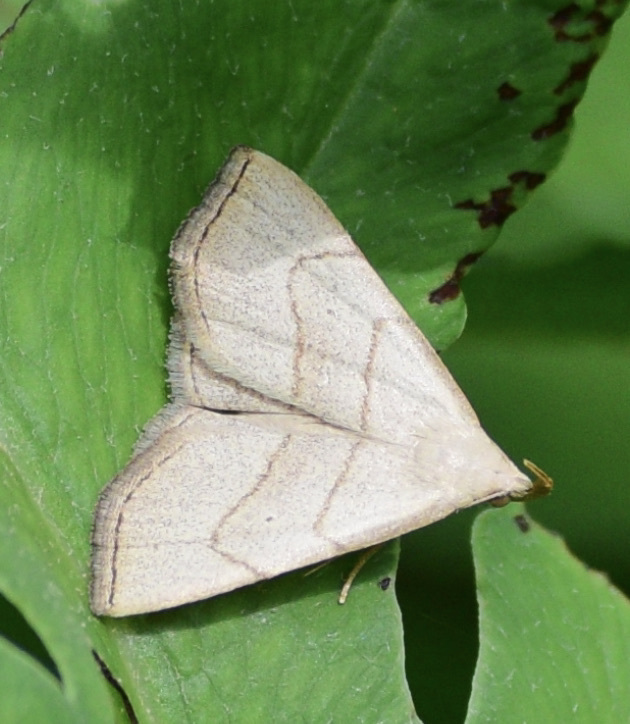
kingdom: Animalia
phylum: Arthropoda
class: Insecta
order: Lepidoptera
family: Erebidae
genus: Macrochilo
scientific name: Macrochilo litophora
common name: Brown-lined owlet
